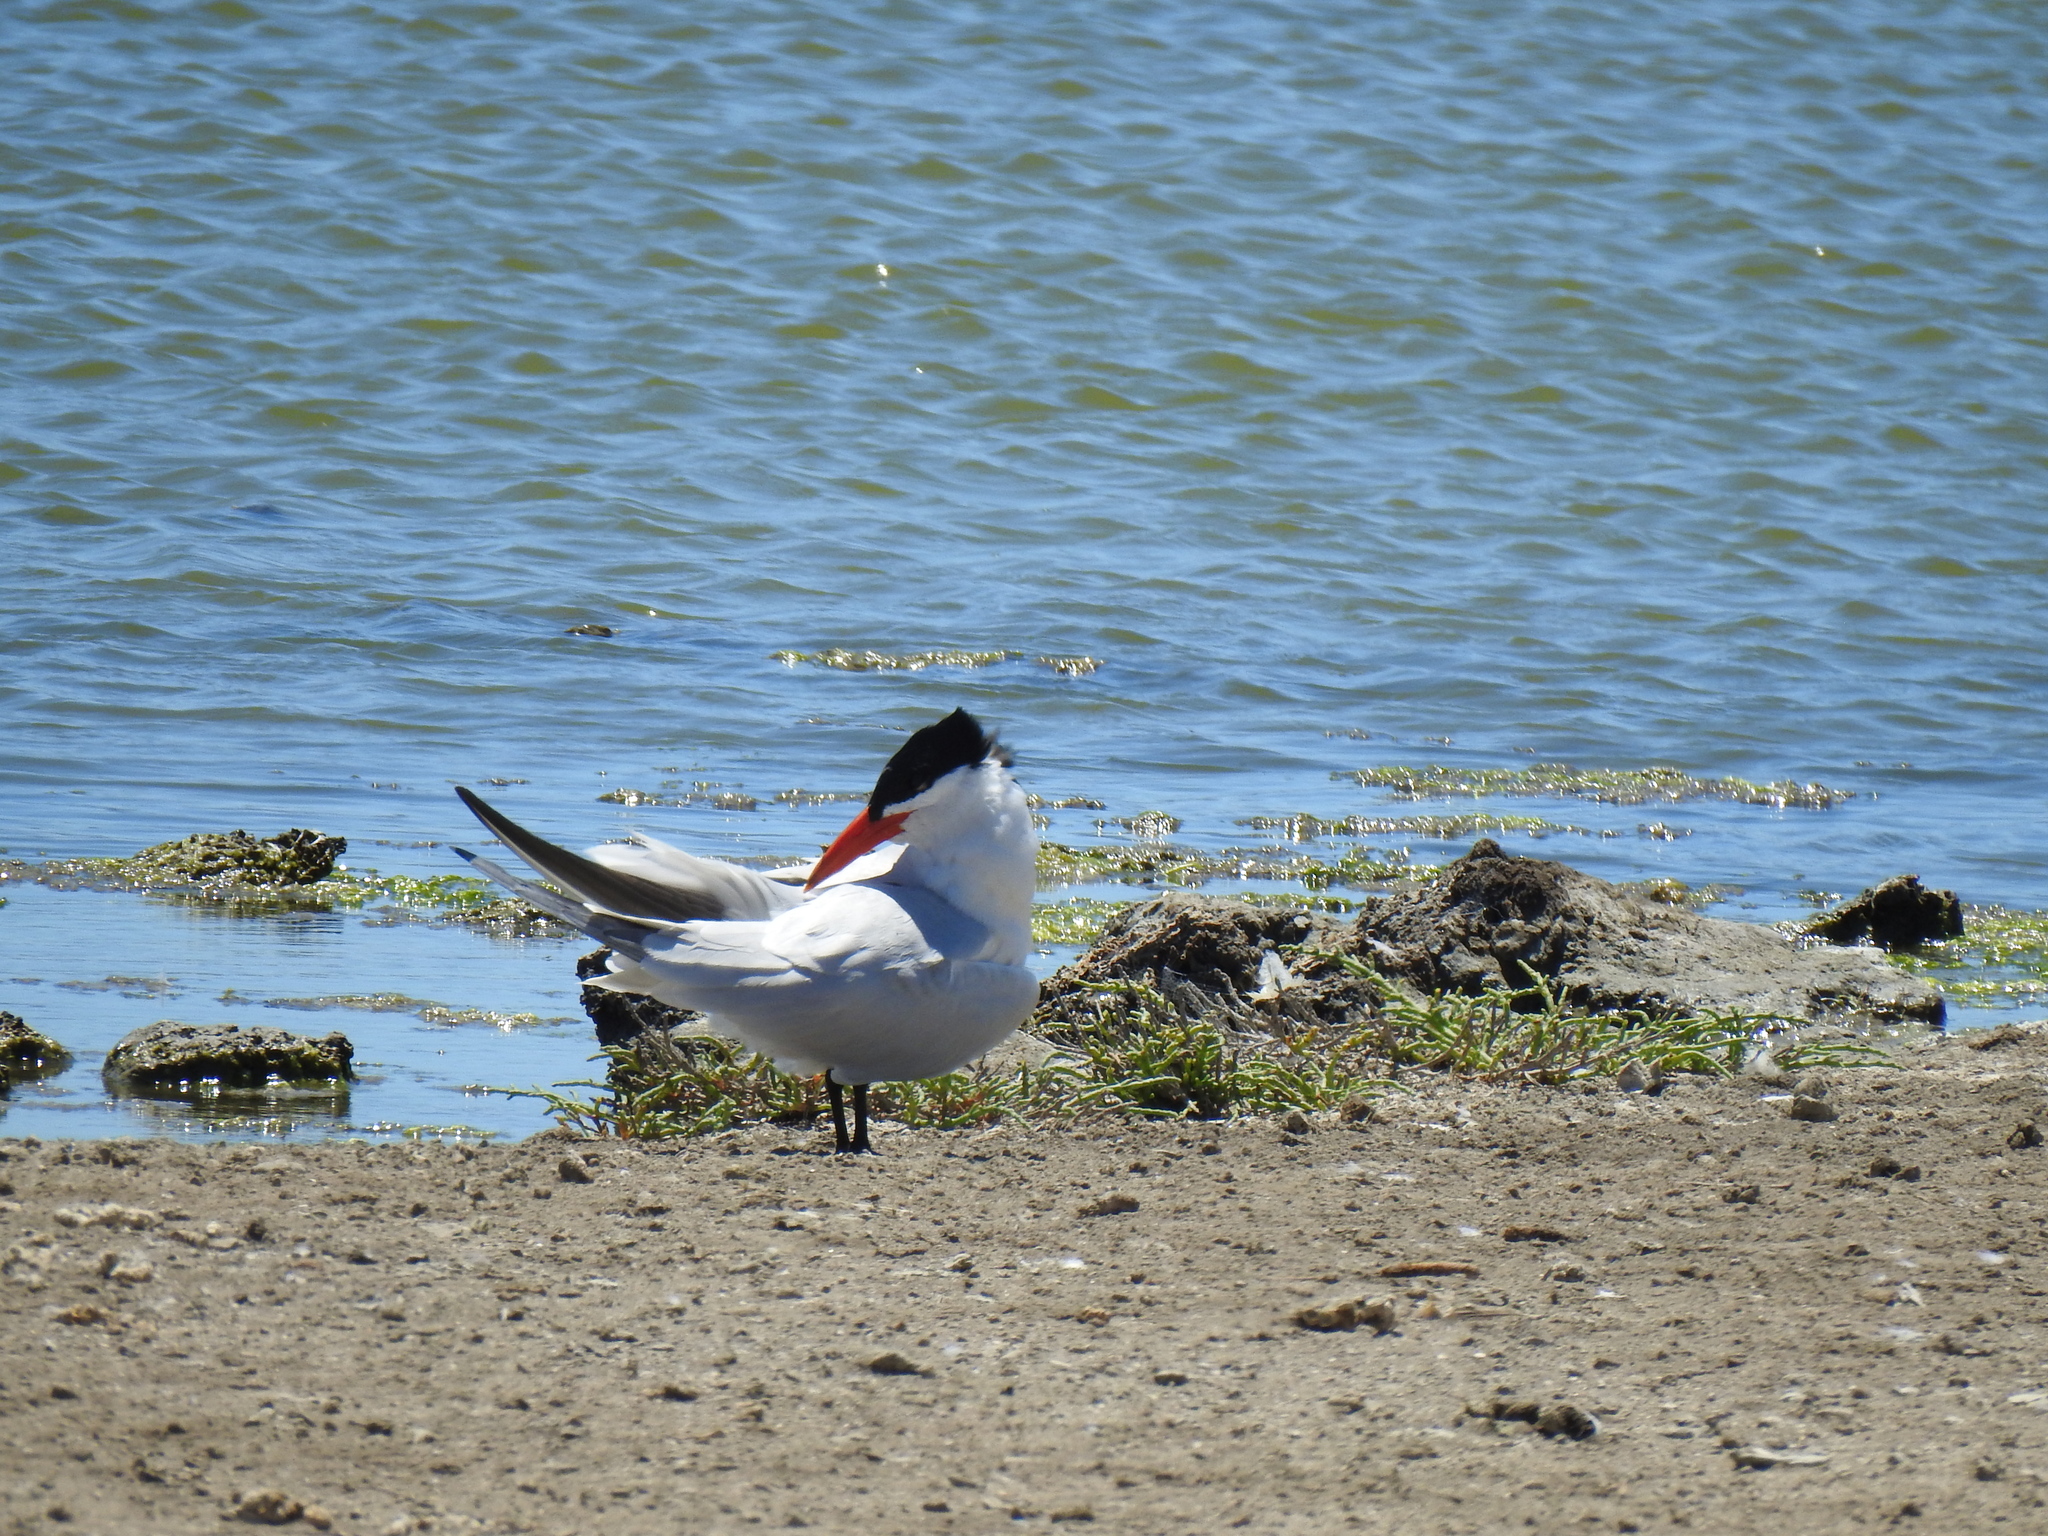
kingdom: Animalia
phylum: Chordata
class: Aves
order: Charadriiformes
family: Laridae
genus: Hydroprogne
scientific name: Hydroprogne caspia
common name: Caspian tern
